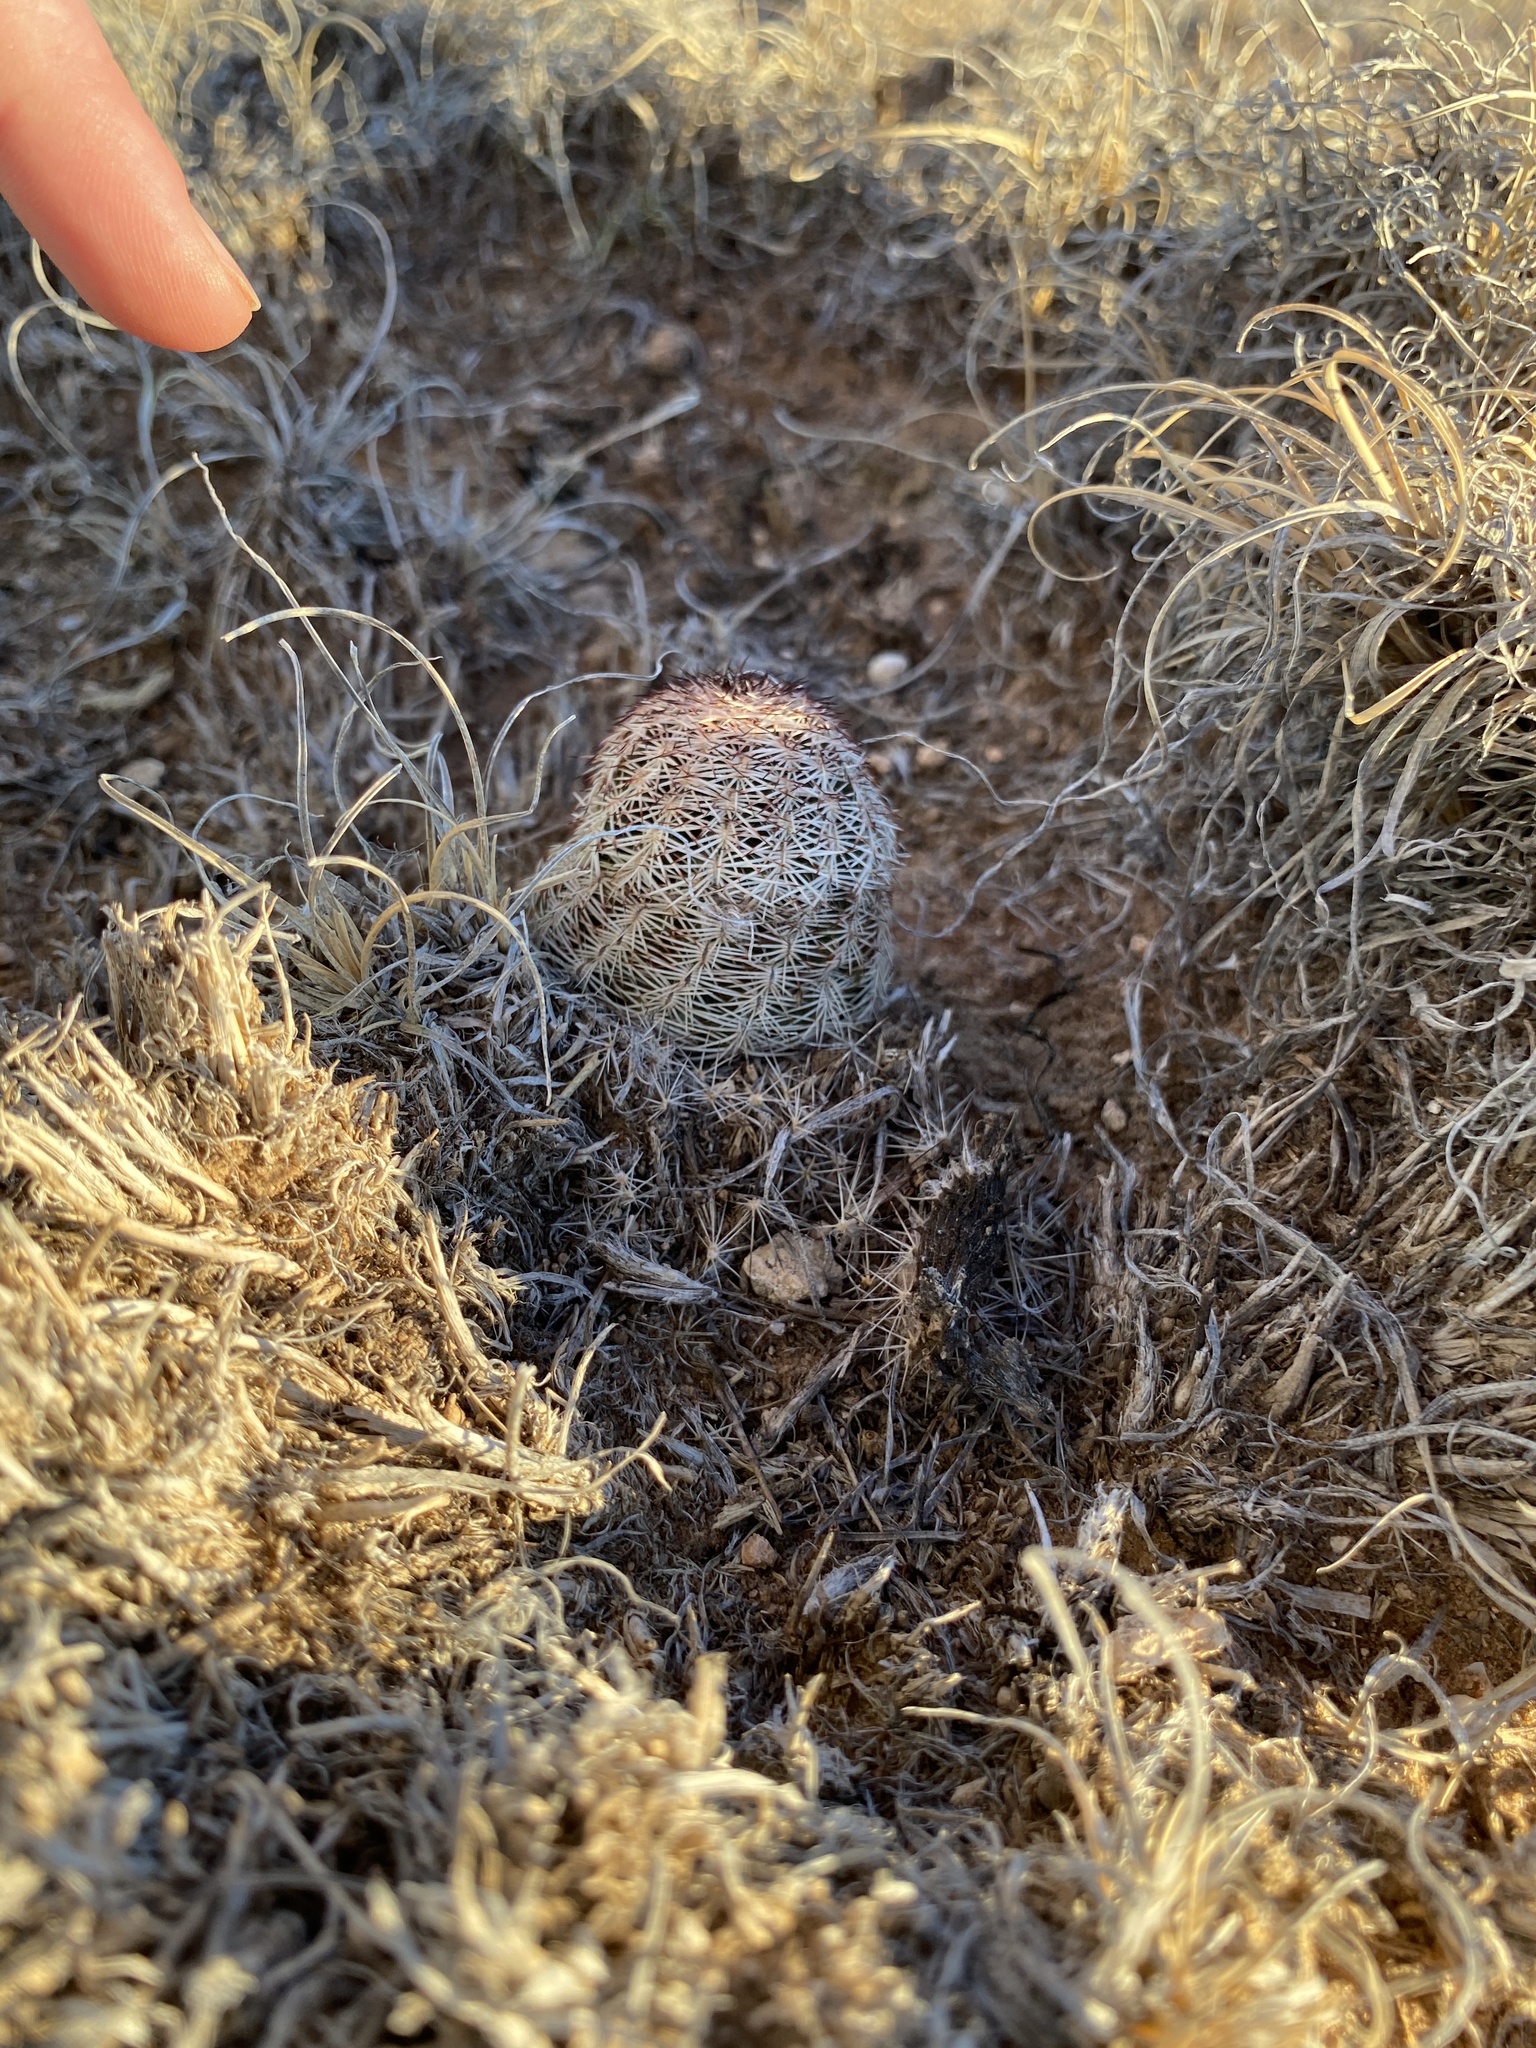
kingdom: Plantae
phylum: Tracheophyta
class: Magnoliopsida
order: Caryophyllales
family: Cactaceae
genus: Echinocereus
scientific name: Echinocereus reichenbachii
